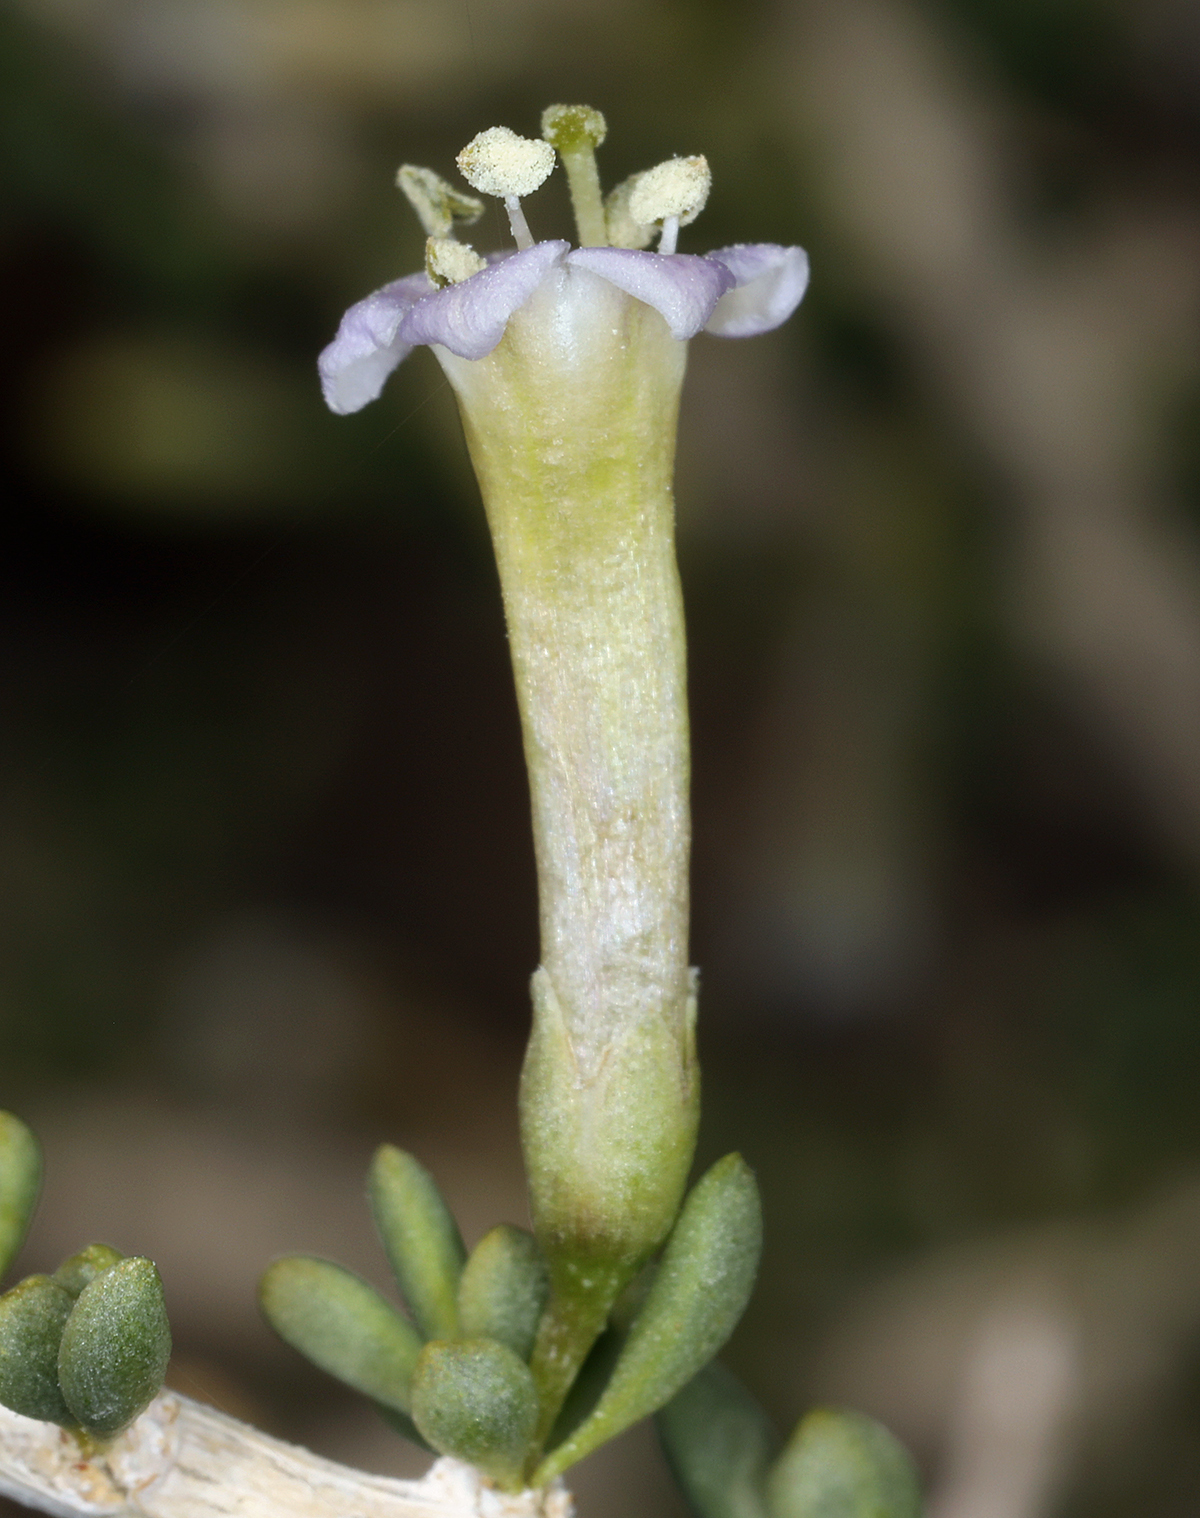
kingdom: Plantae
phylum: Tracheophyta
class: Magnoliopsida
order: Solanales
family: Solanaceae
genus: Lycium
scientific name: Lycium andersonii
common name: Water-jacket
